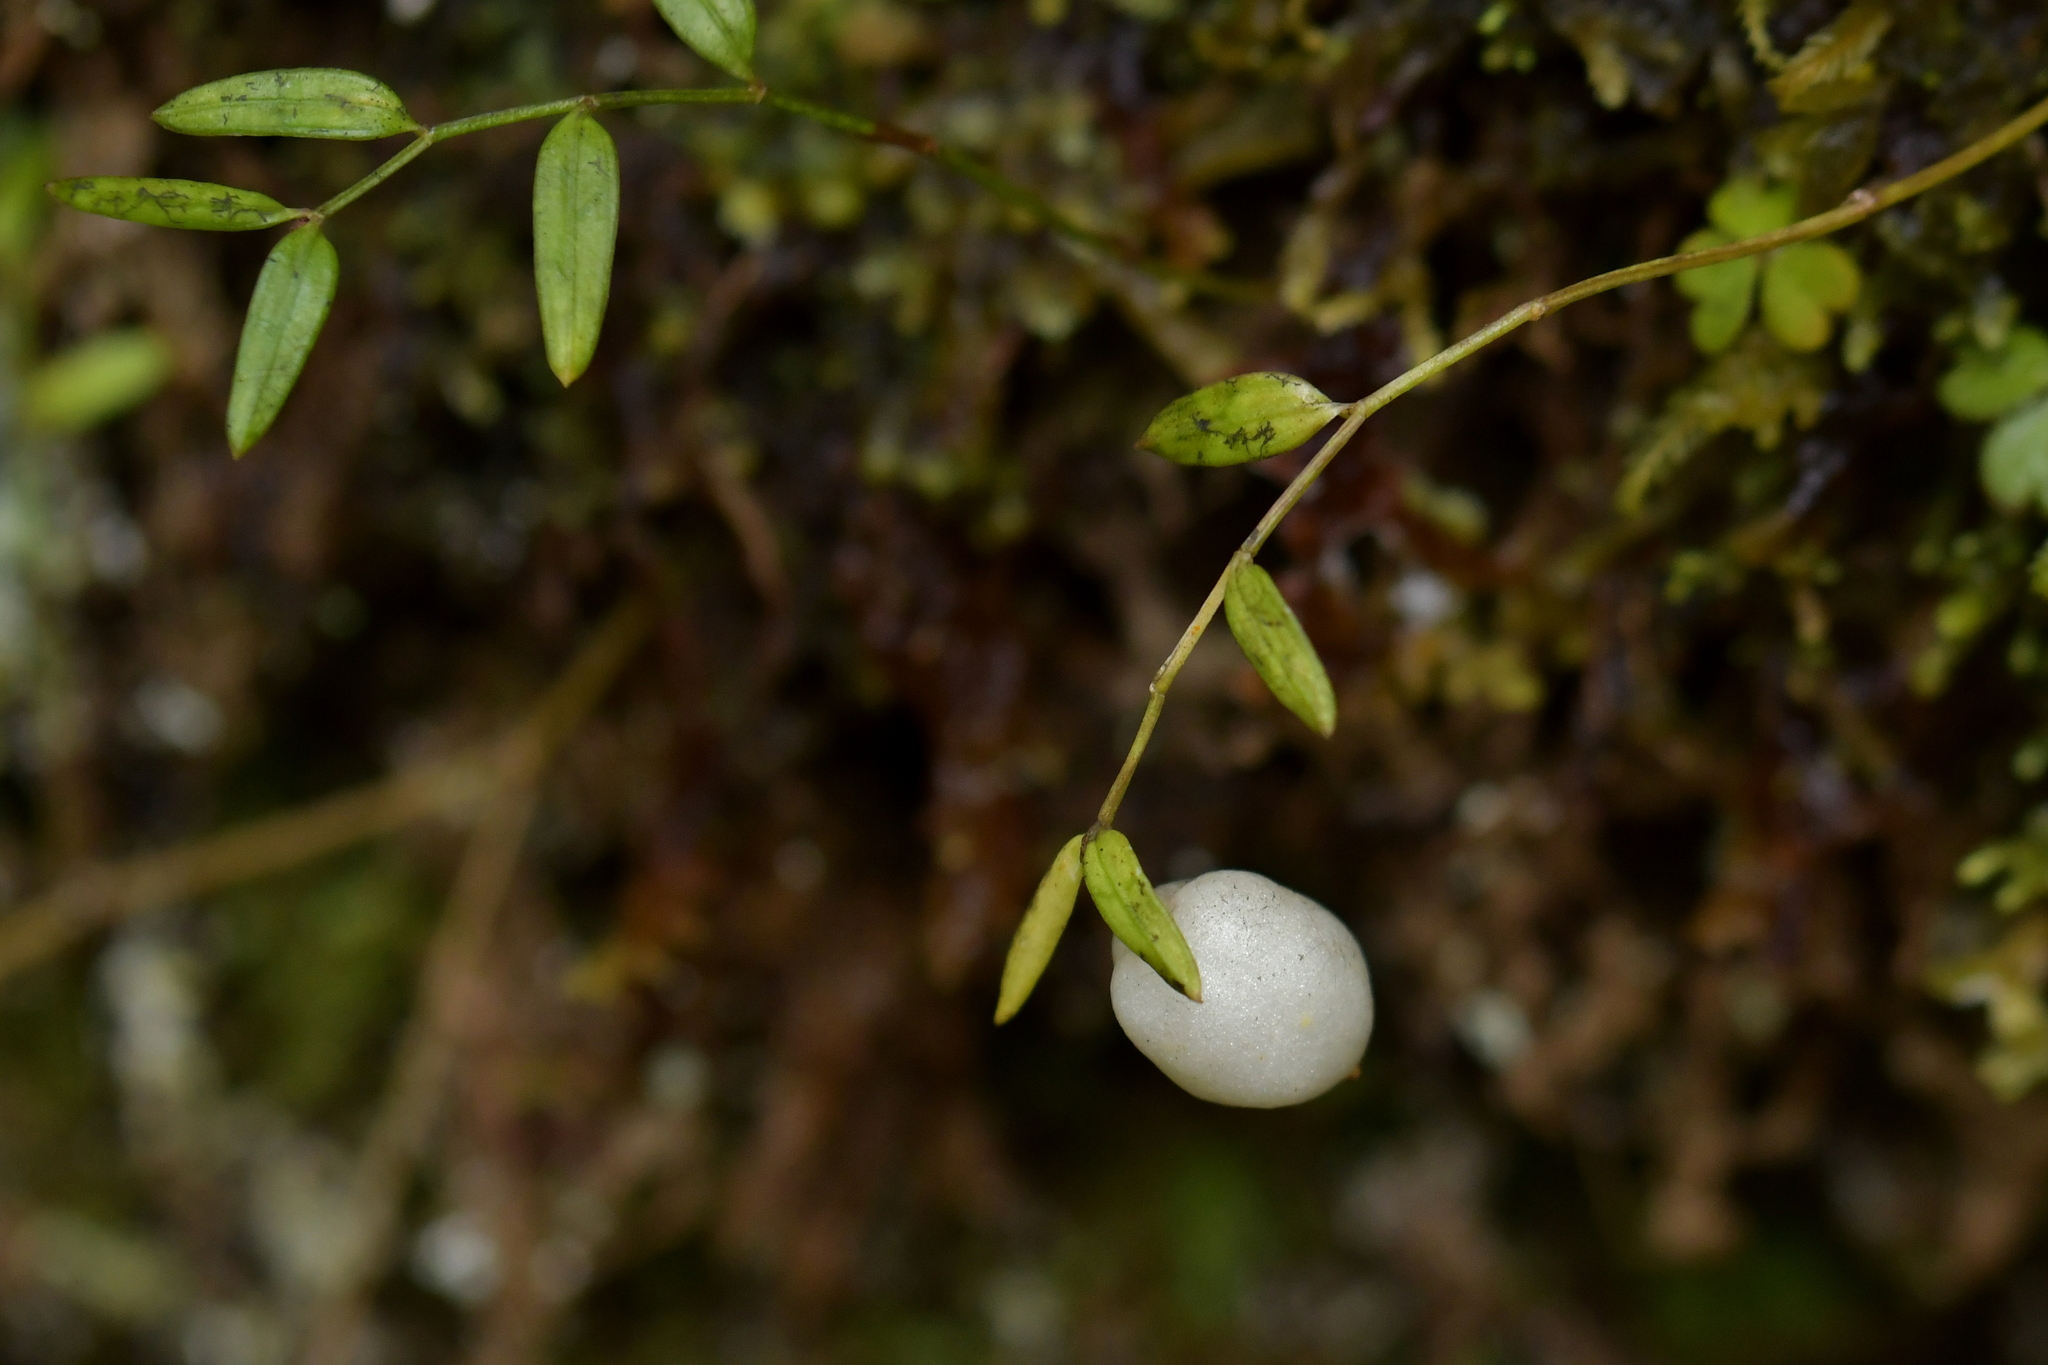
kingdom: Plantae
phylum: Tracheophyta
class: Liliopsida
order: Liliales
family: Alstroemeriaceae
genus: Luzuriaga
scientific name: Luzuriaga parviflora
